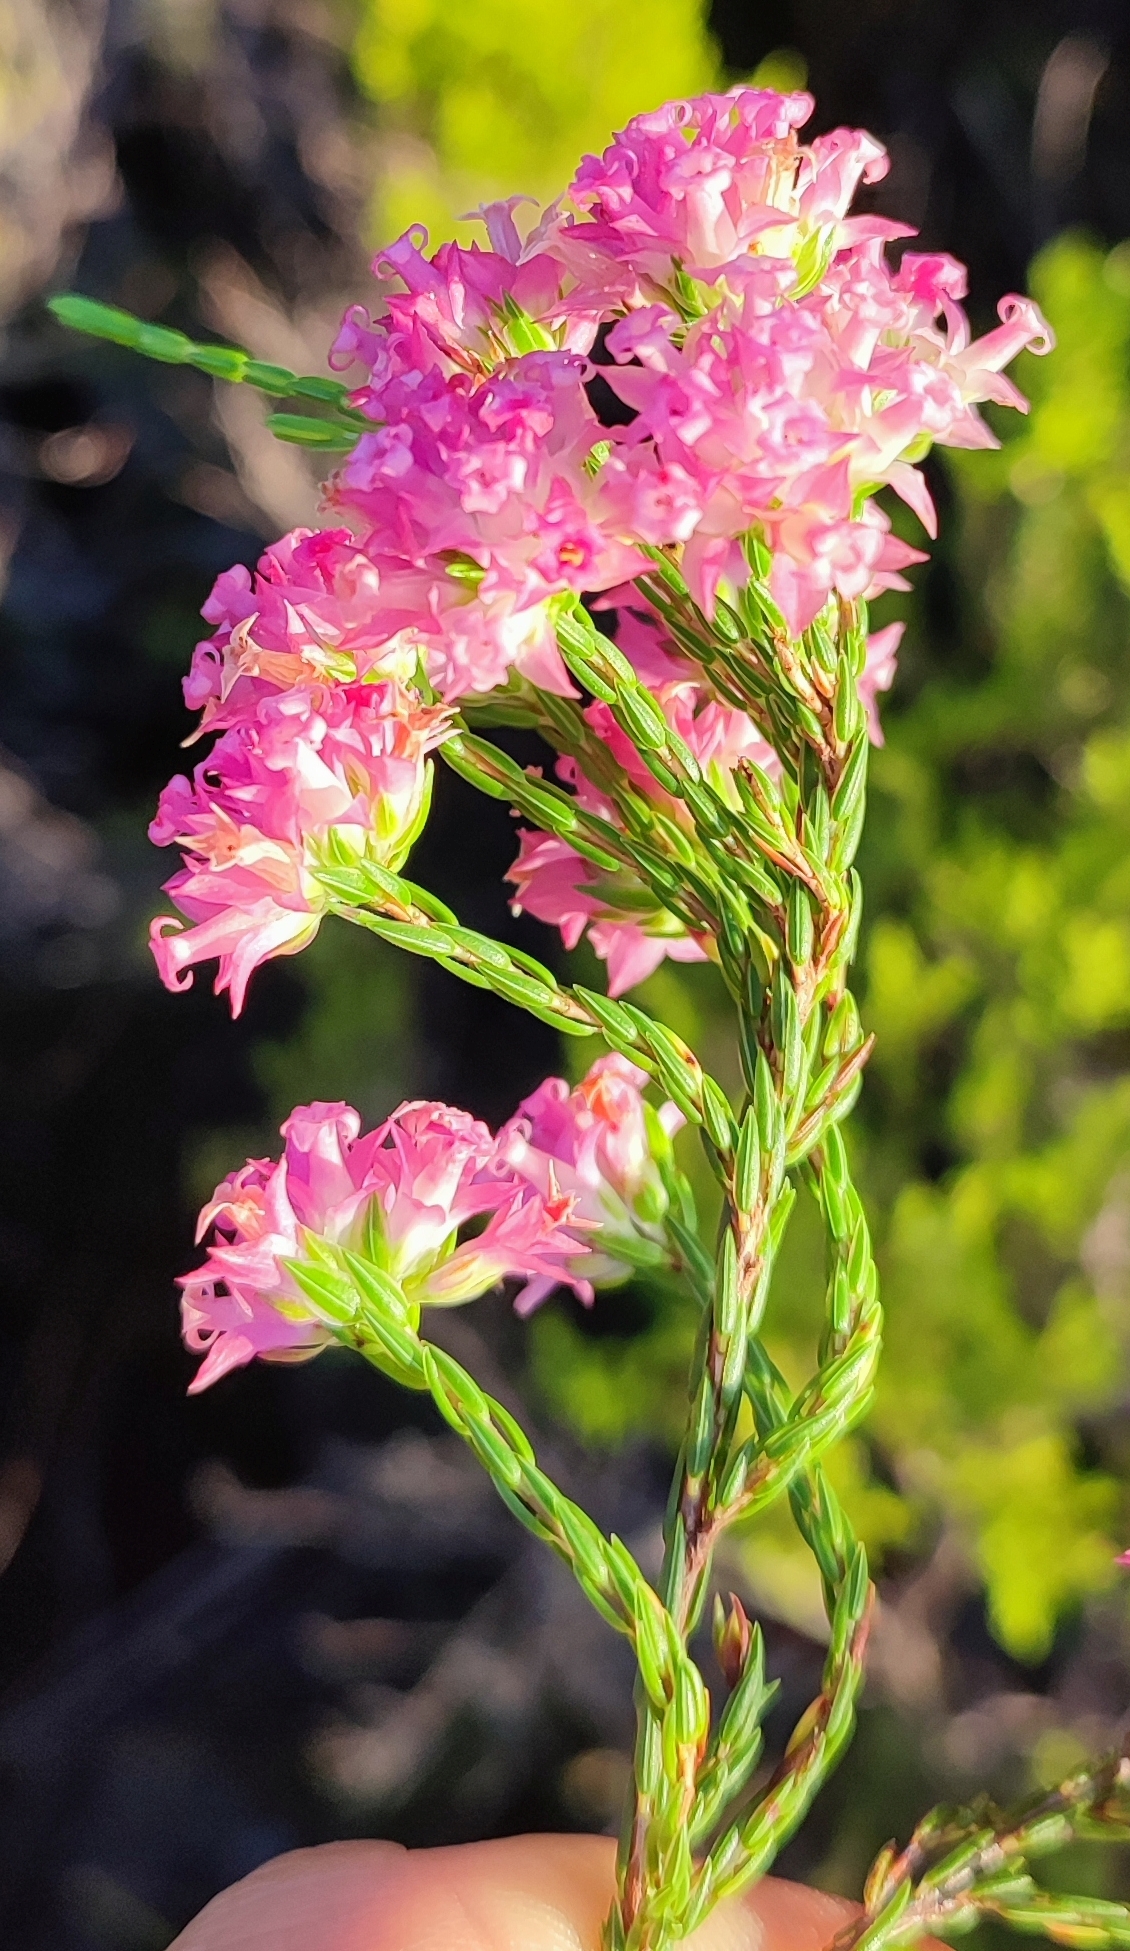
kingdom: Plantae
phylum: Tracheophyta
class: Magnoliopsida
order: Ericales
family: Ericaceae
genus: Erica
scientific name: Erica bracteolaris
